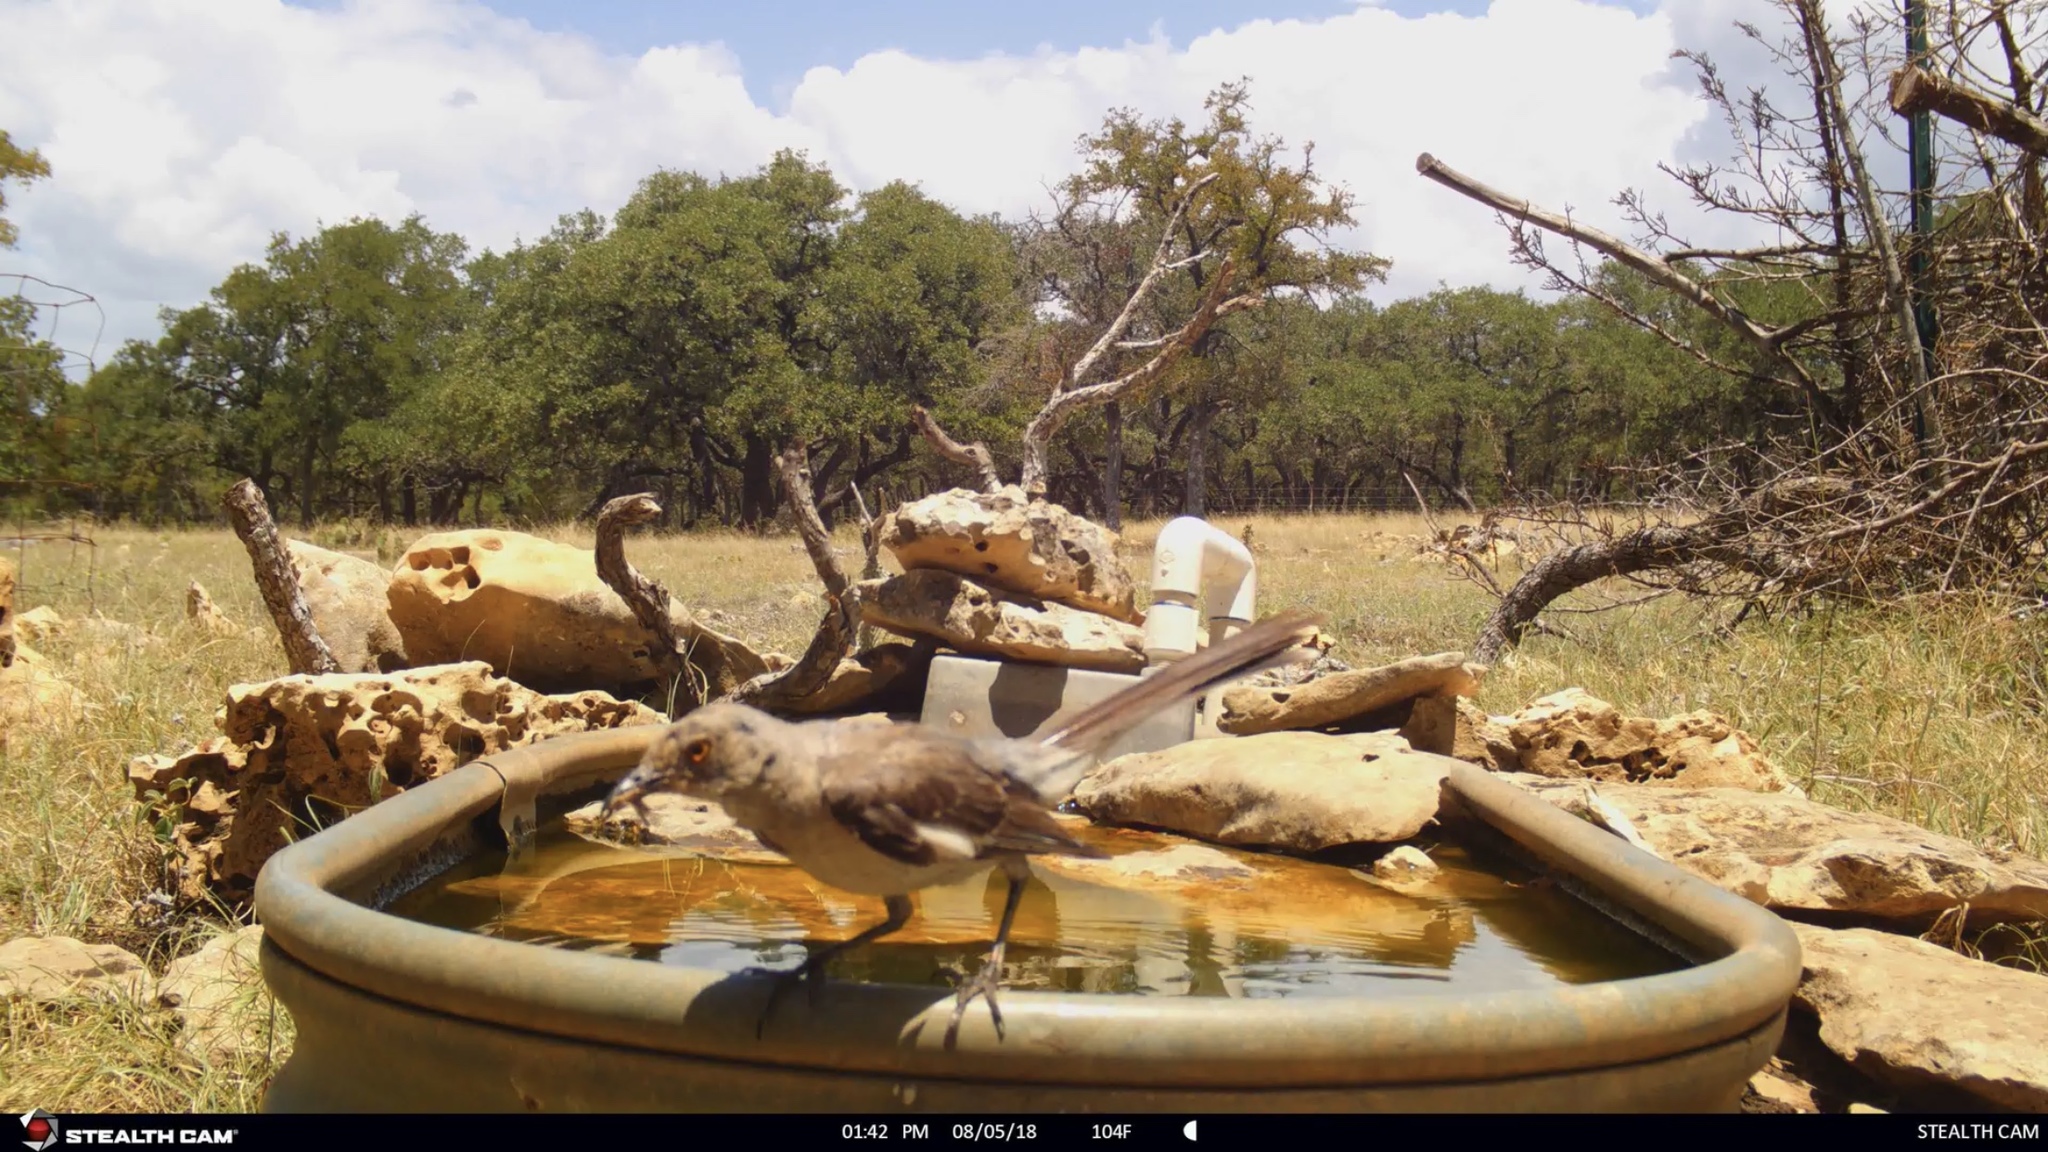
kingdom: Animalia
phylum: Chordata
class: Aves
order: Passeriformes
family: Mimidae
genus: Mimus
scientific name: Mimus polyglottos
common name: Northern mockingbird
